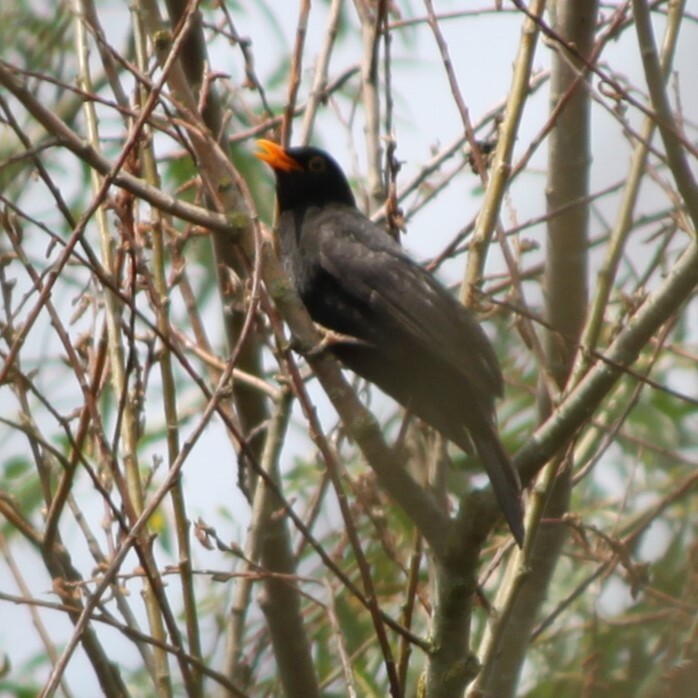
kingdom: Animalia
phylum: Chordata
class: Aves
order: Passeriformes
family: Turdidae
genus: Turdus
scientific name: Turdus merula
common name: Common blackbird
